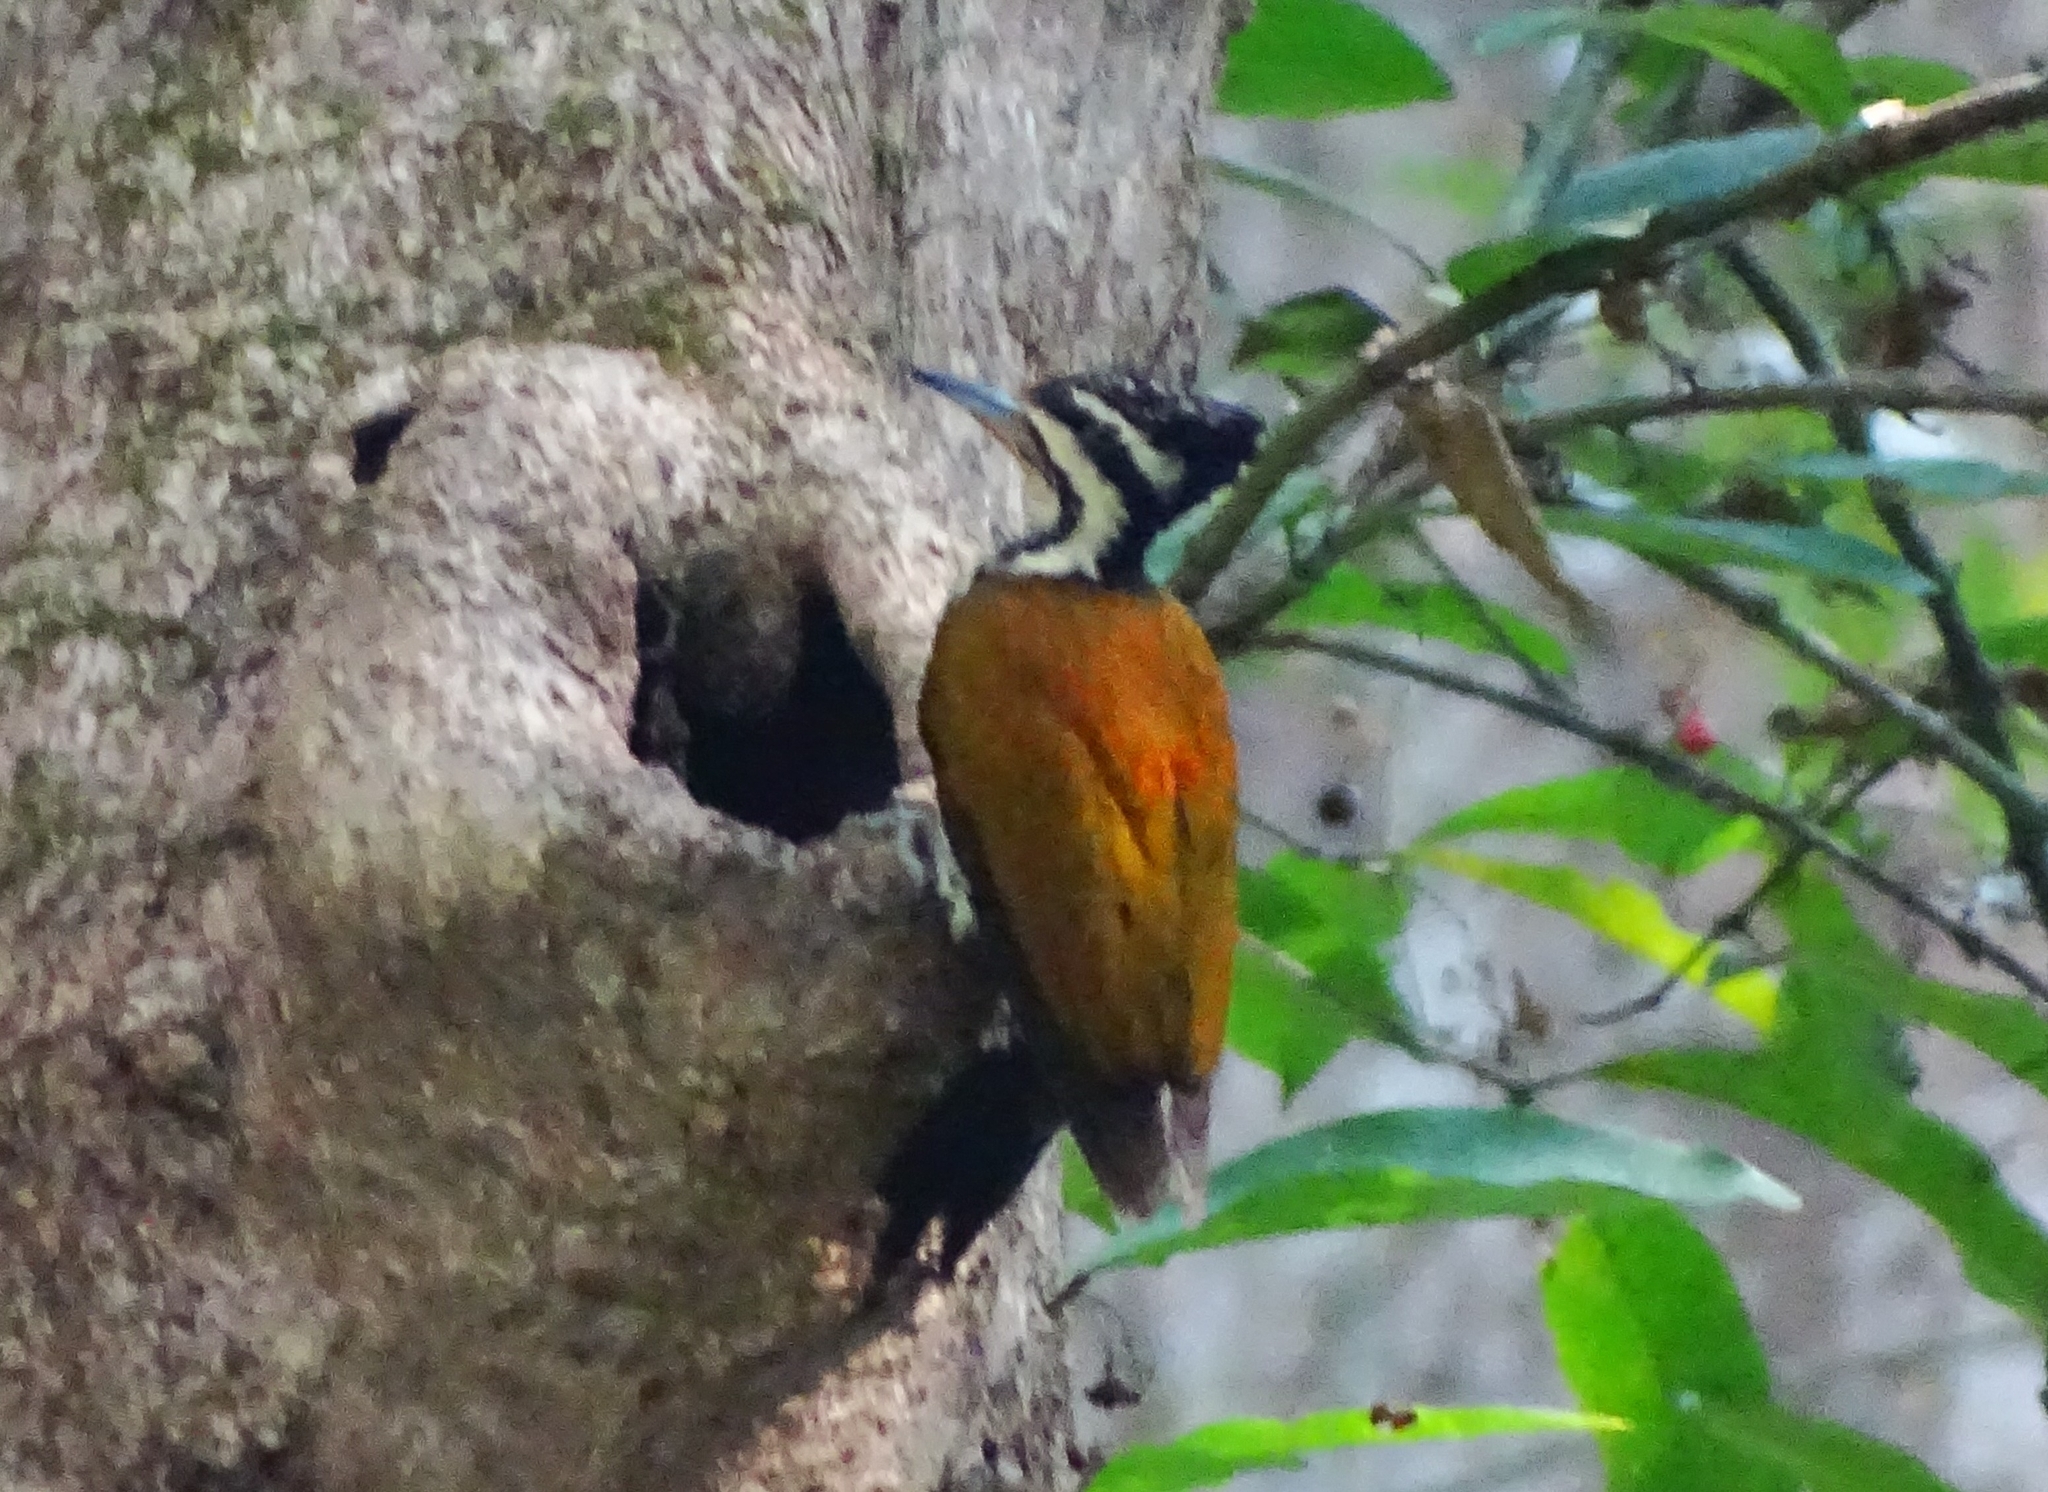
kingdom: Animalia
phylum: Chordata
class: Aves
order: Piciformes
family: Picidae
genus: Dinopium
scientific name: Dinopium benghalense
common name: Black-rumped flameback
